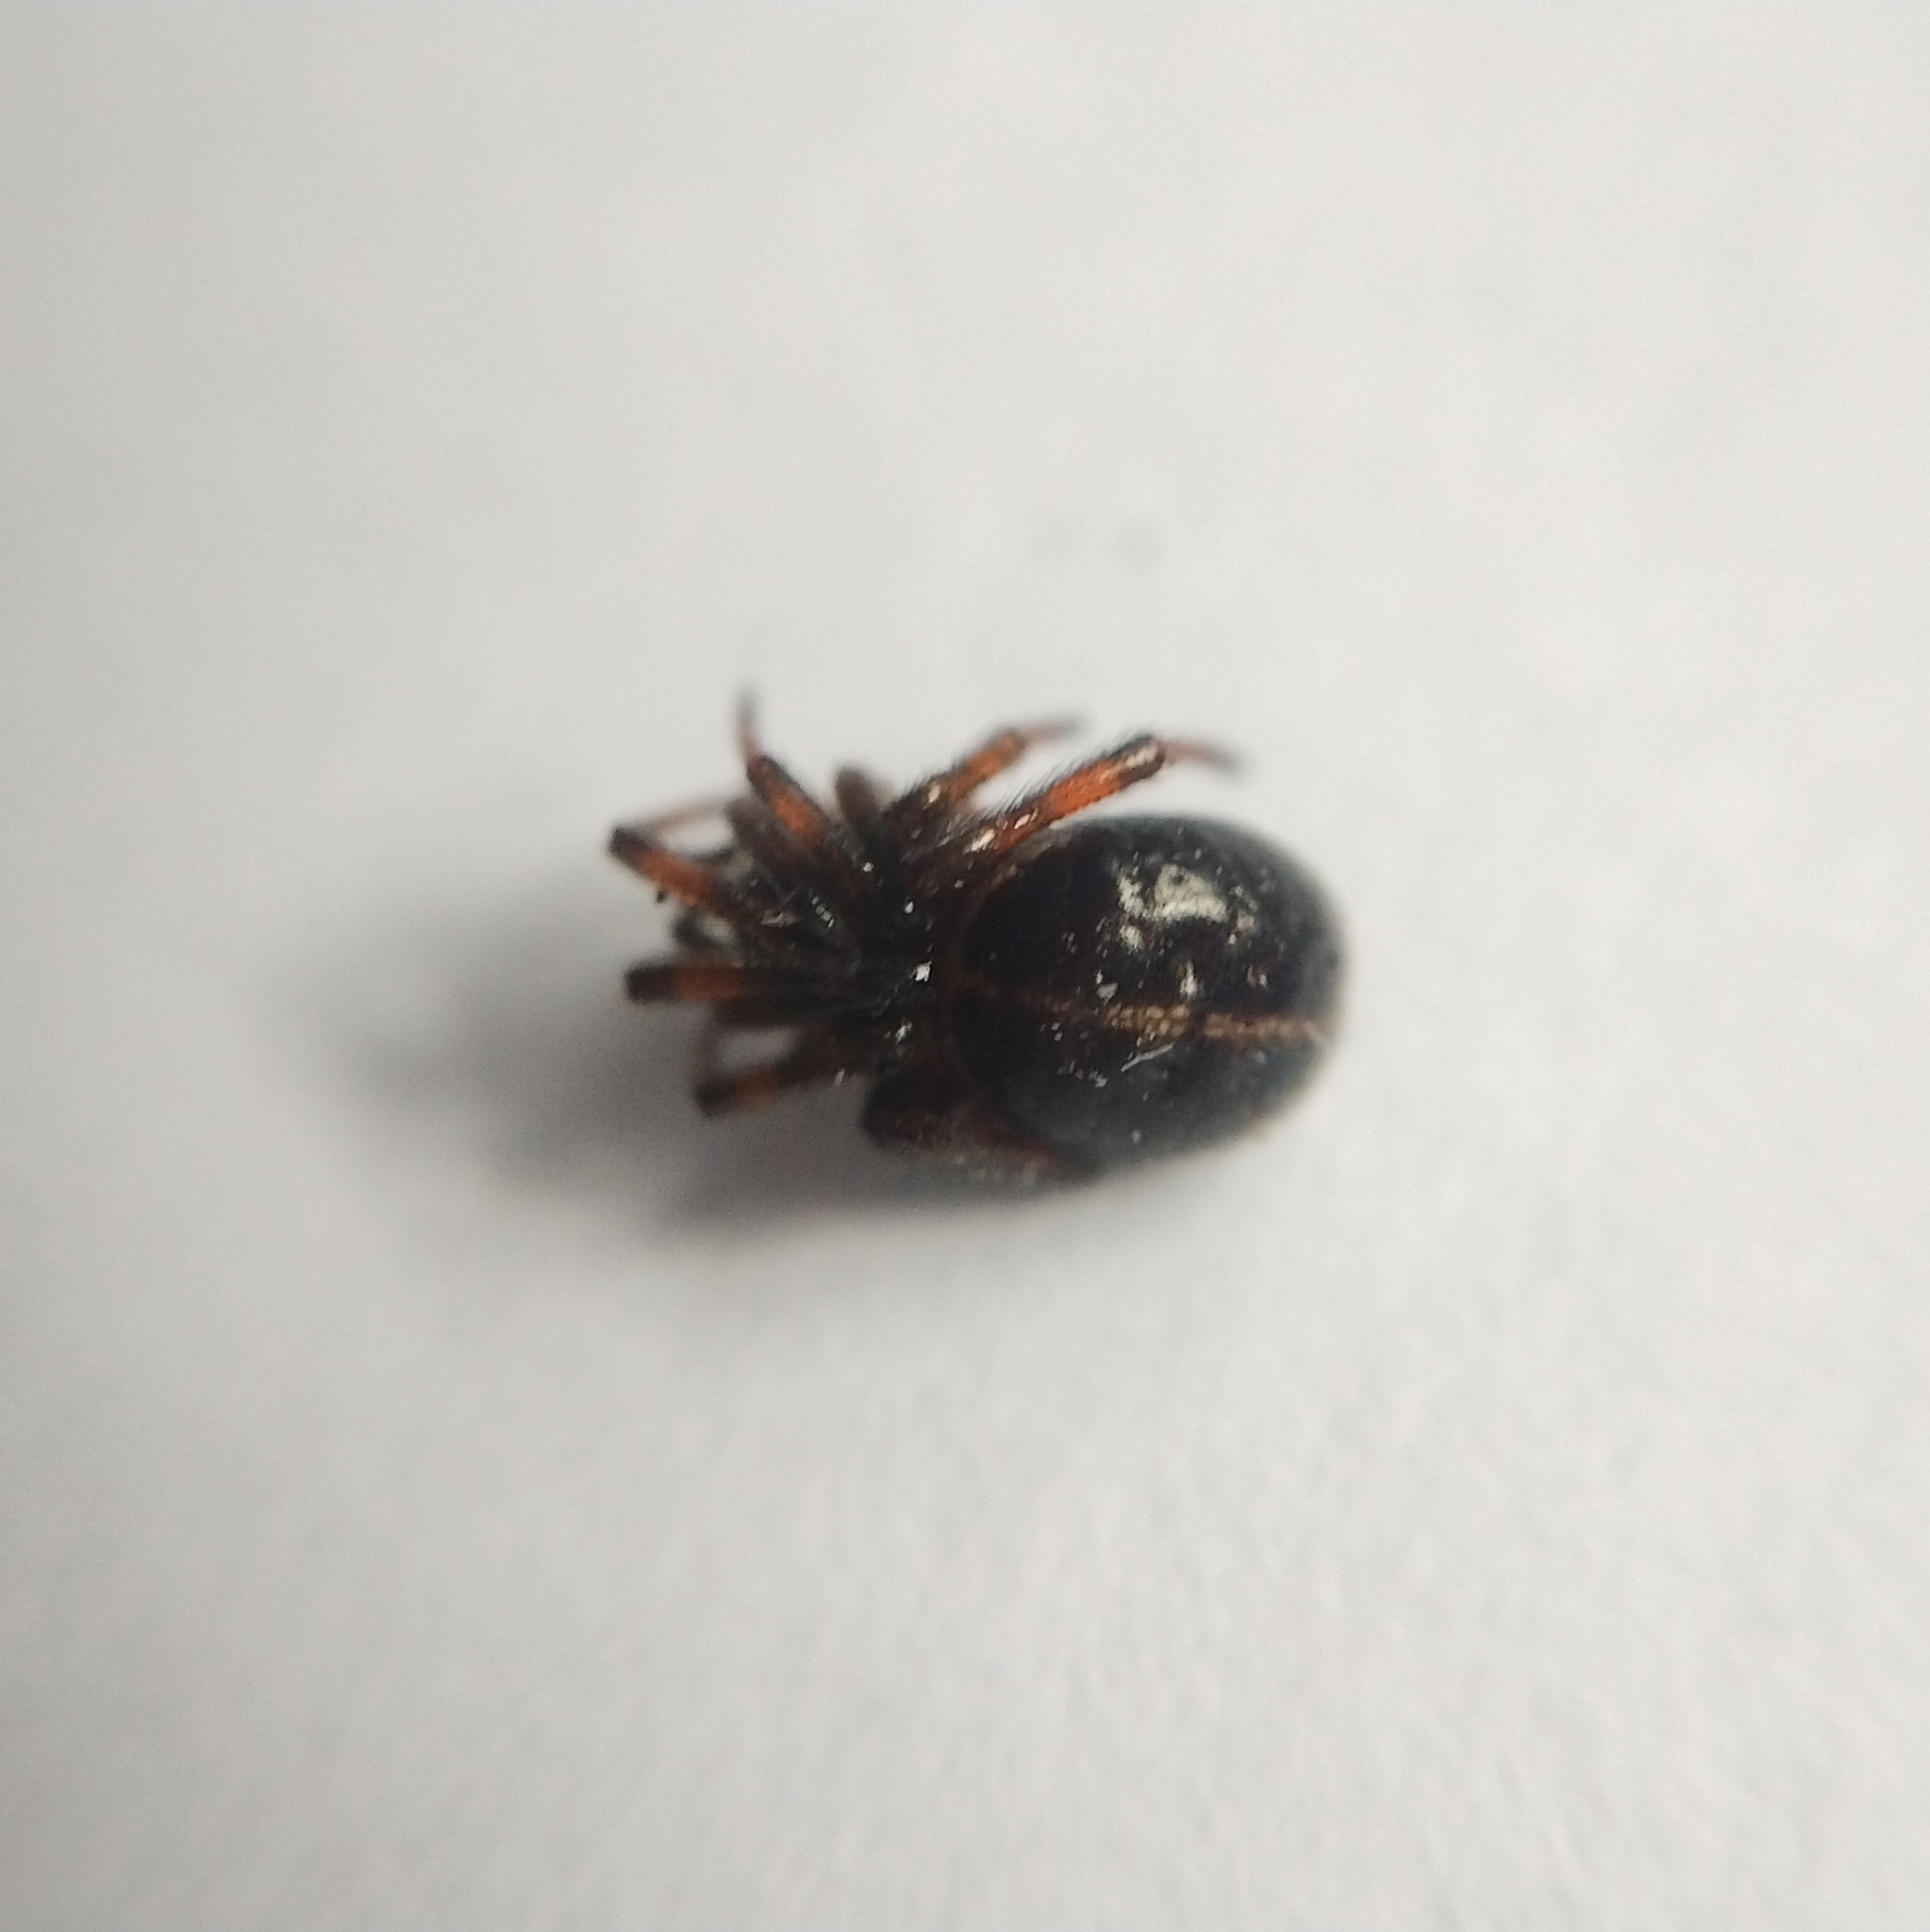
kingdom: Animalia
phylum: Arthropoda
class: Arachnida
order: Araneae
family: Theridiidae
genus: Steatoda
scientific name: Steatoda bipunctata
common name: False widow
